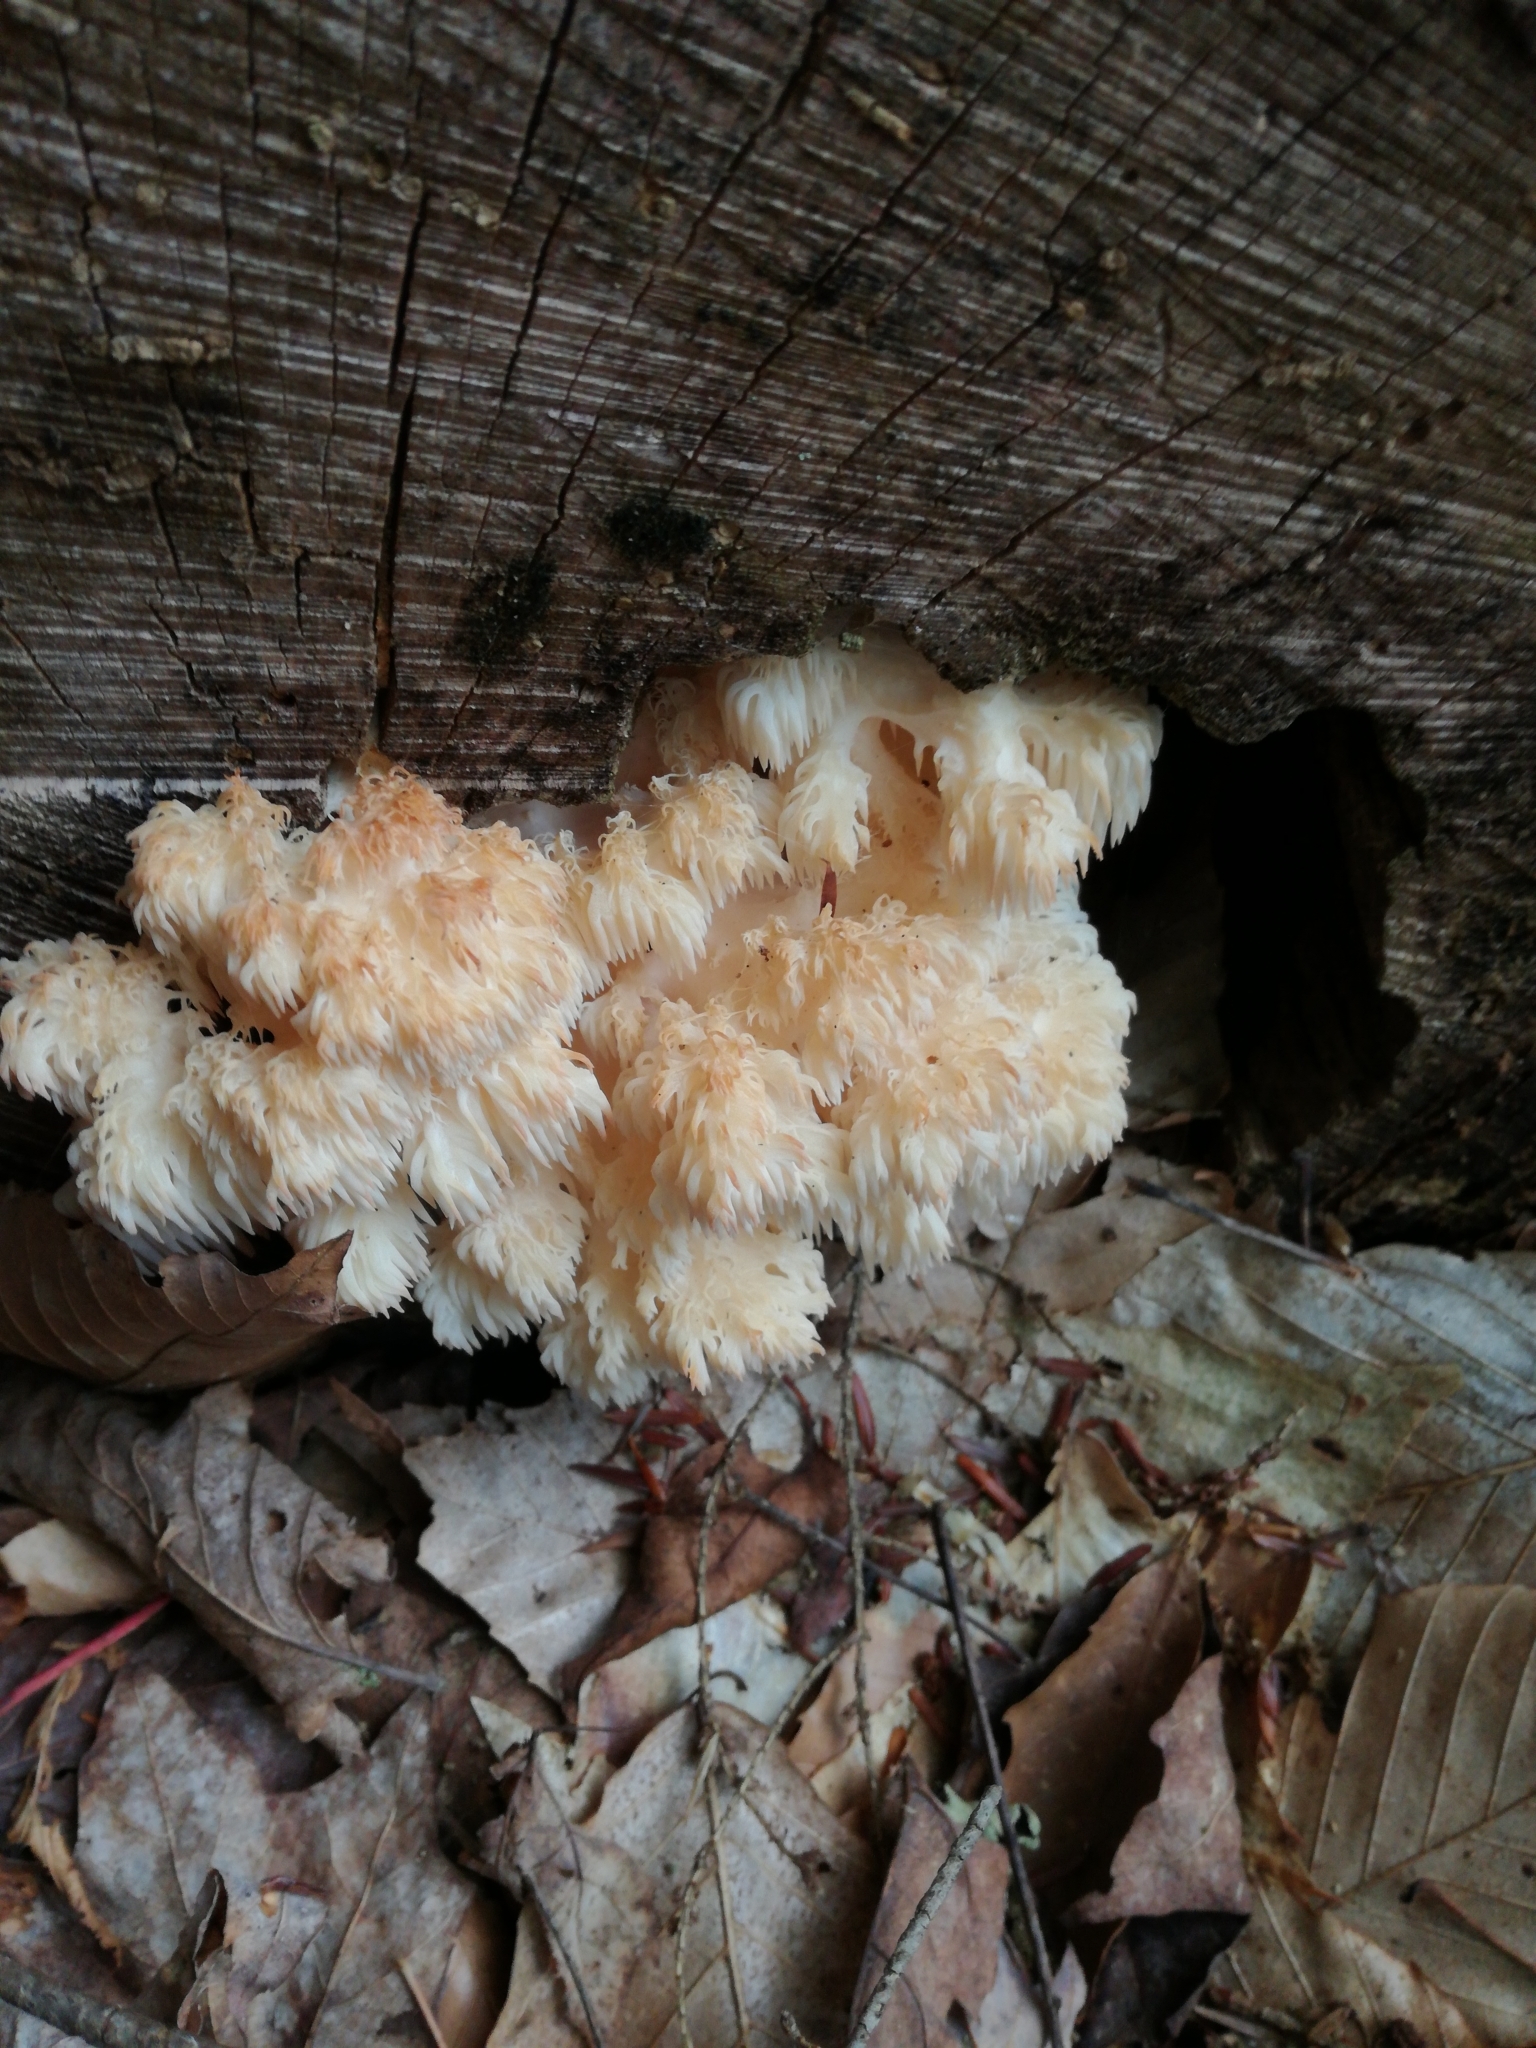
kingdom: Fungi
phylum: Basidiomycota
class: Agaricomycetes
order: Russulales
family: Hericiaceae
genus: Hericium
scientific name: Hericium americanum
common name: Bear's head tooth
